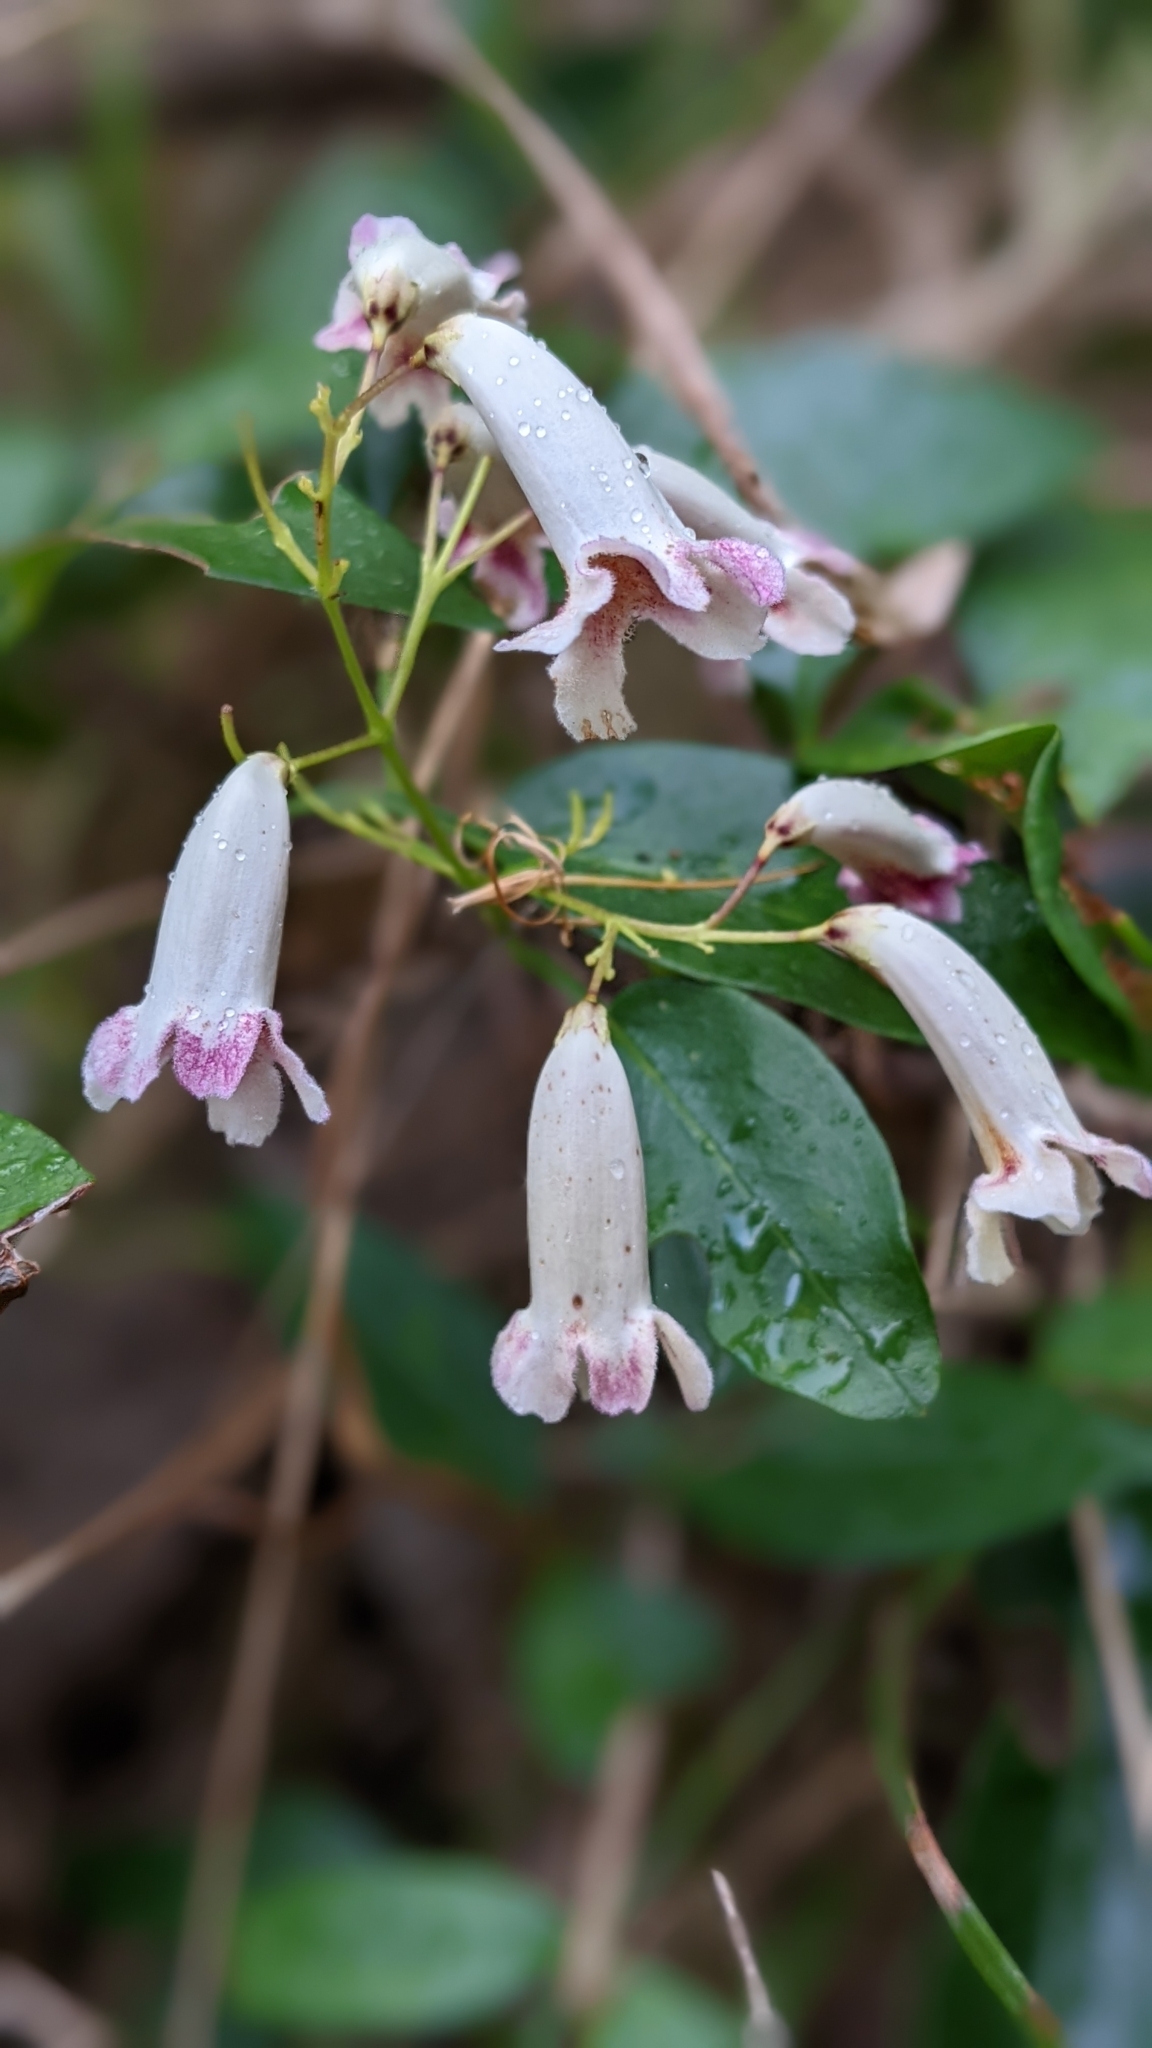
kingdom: Plantae
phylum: Tracheophyta
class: Magnoliopsida
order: Lamiales
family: Bignoniaceae
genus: Pandorea
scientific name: Pandorea pandorana
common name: Wonga-wonga-vine
